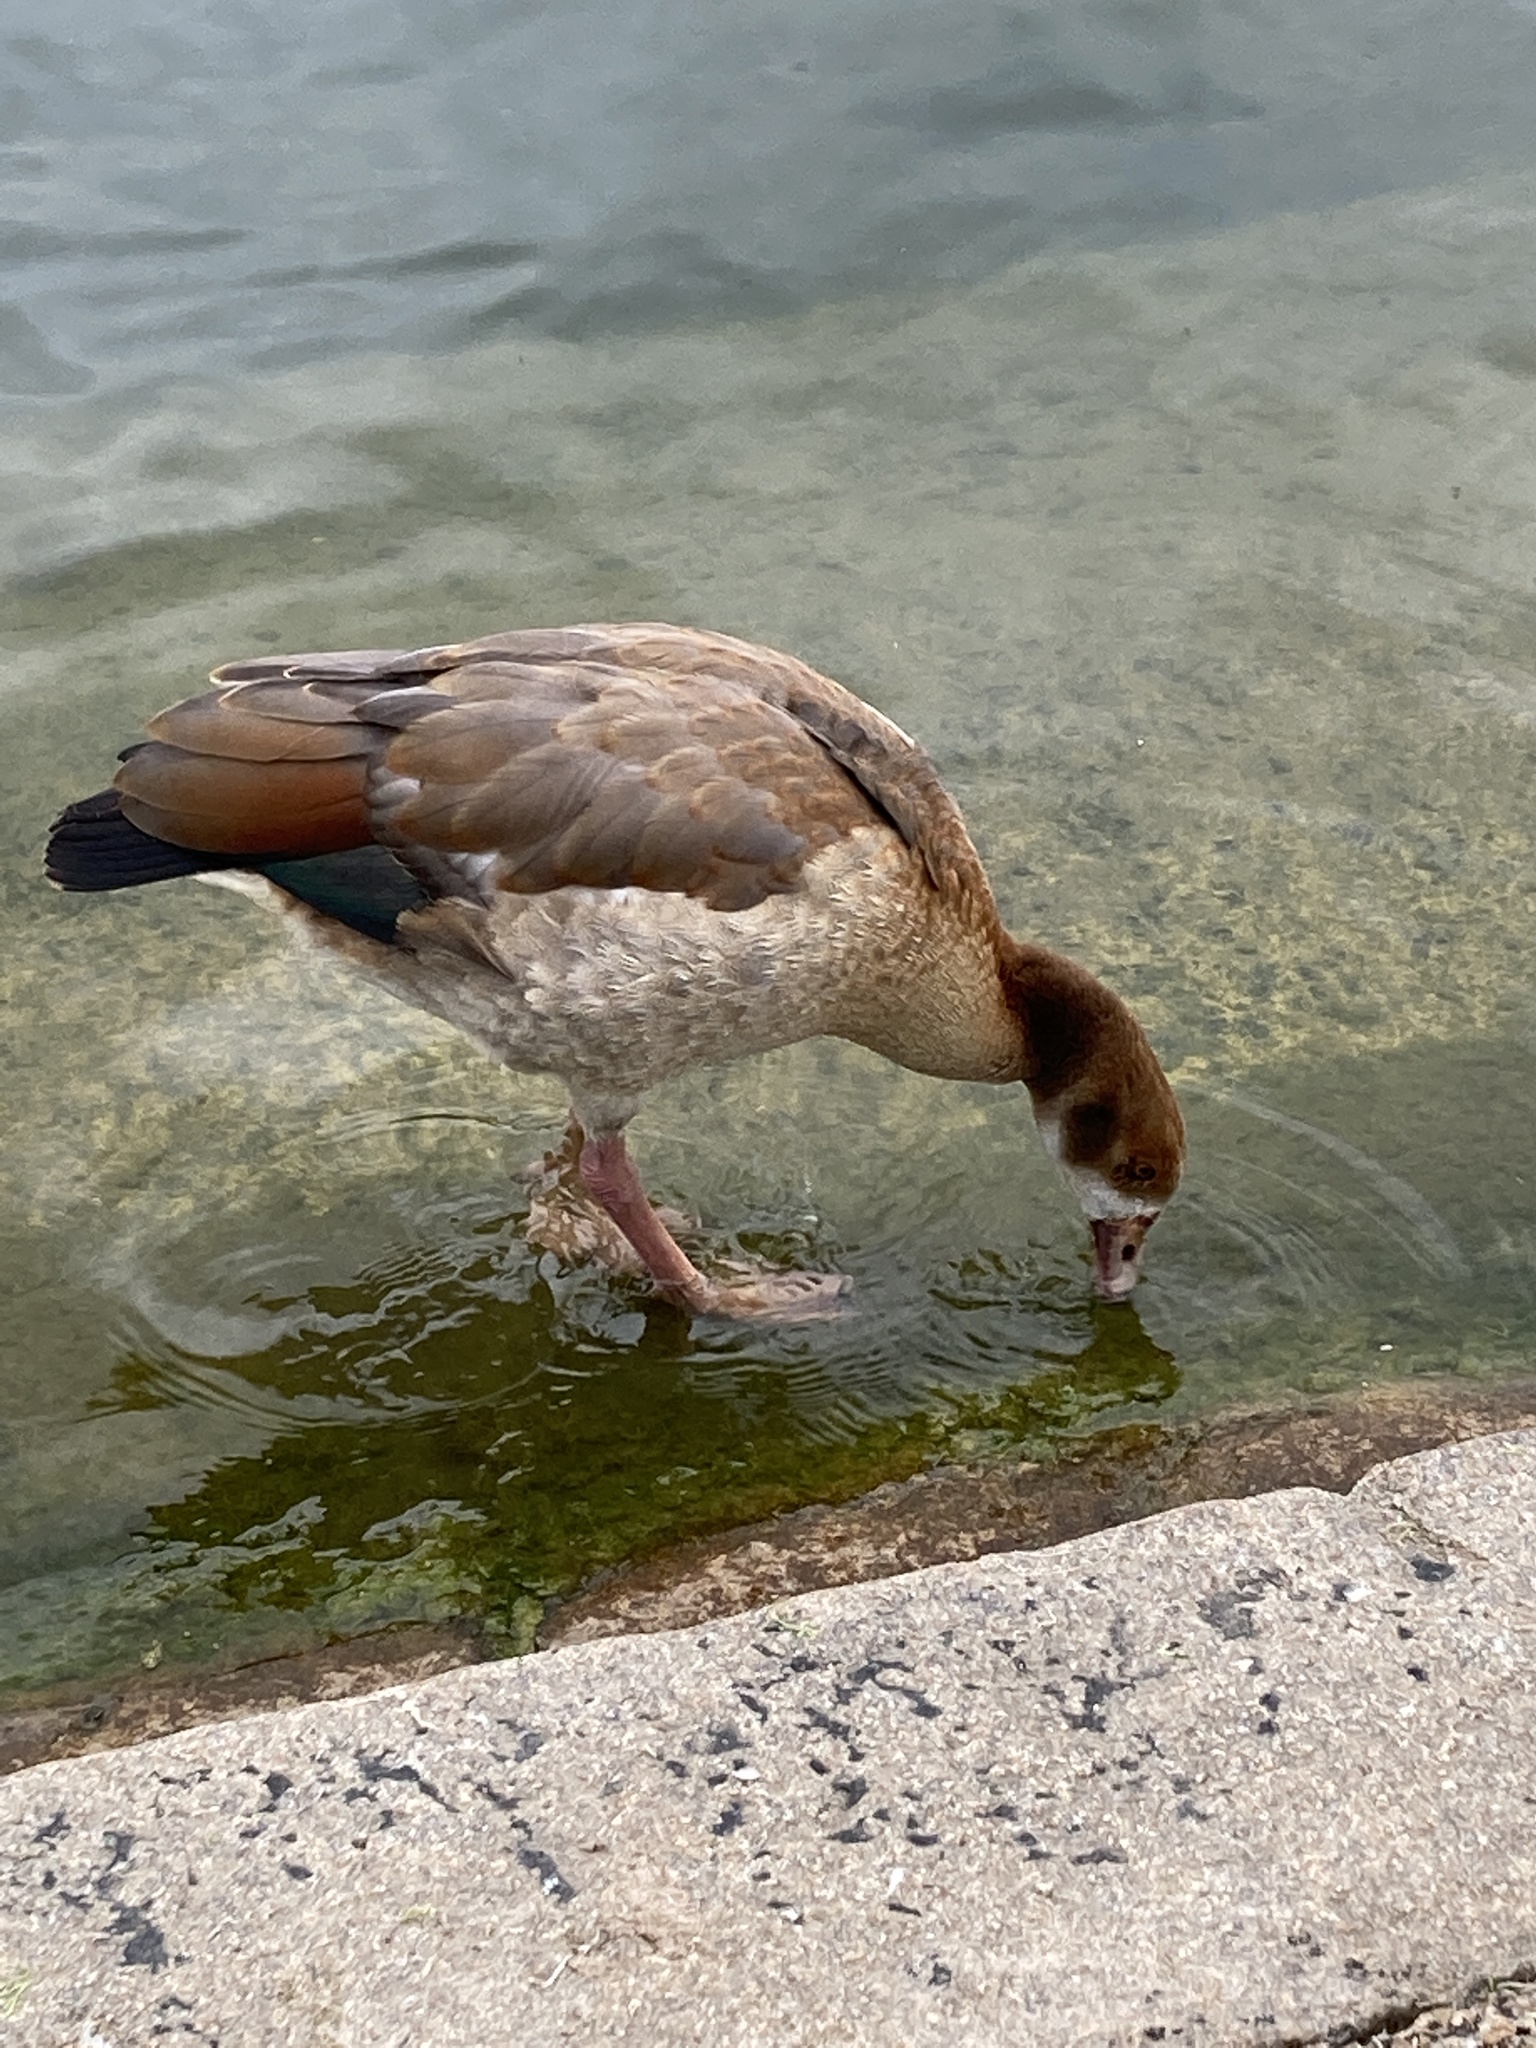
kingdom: Animalia
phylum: Chordata
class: Aves
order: Anseriformes
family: Anatidae
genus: Alopochen
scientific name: Alopochen aegyptiaca
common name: Egyptian goose
